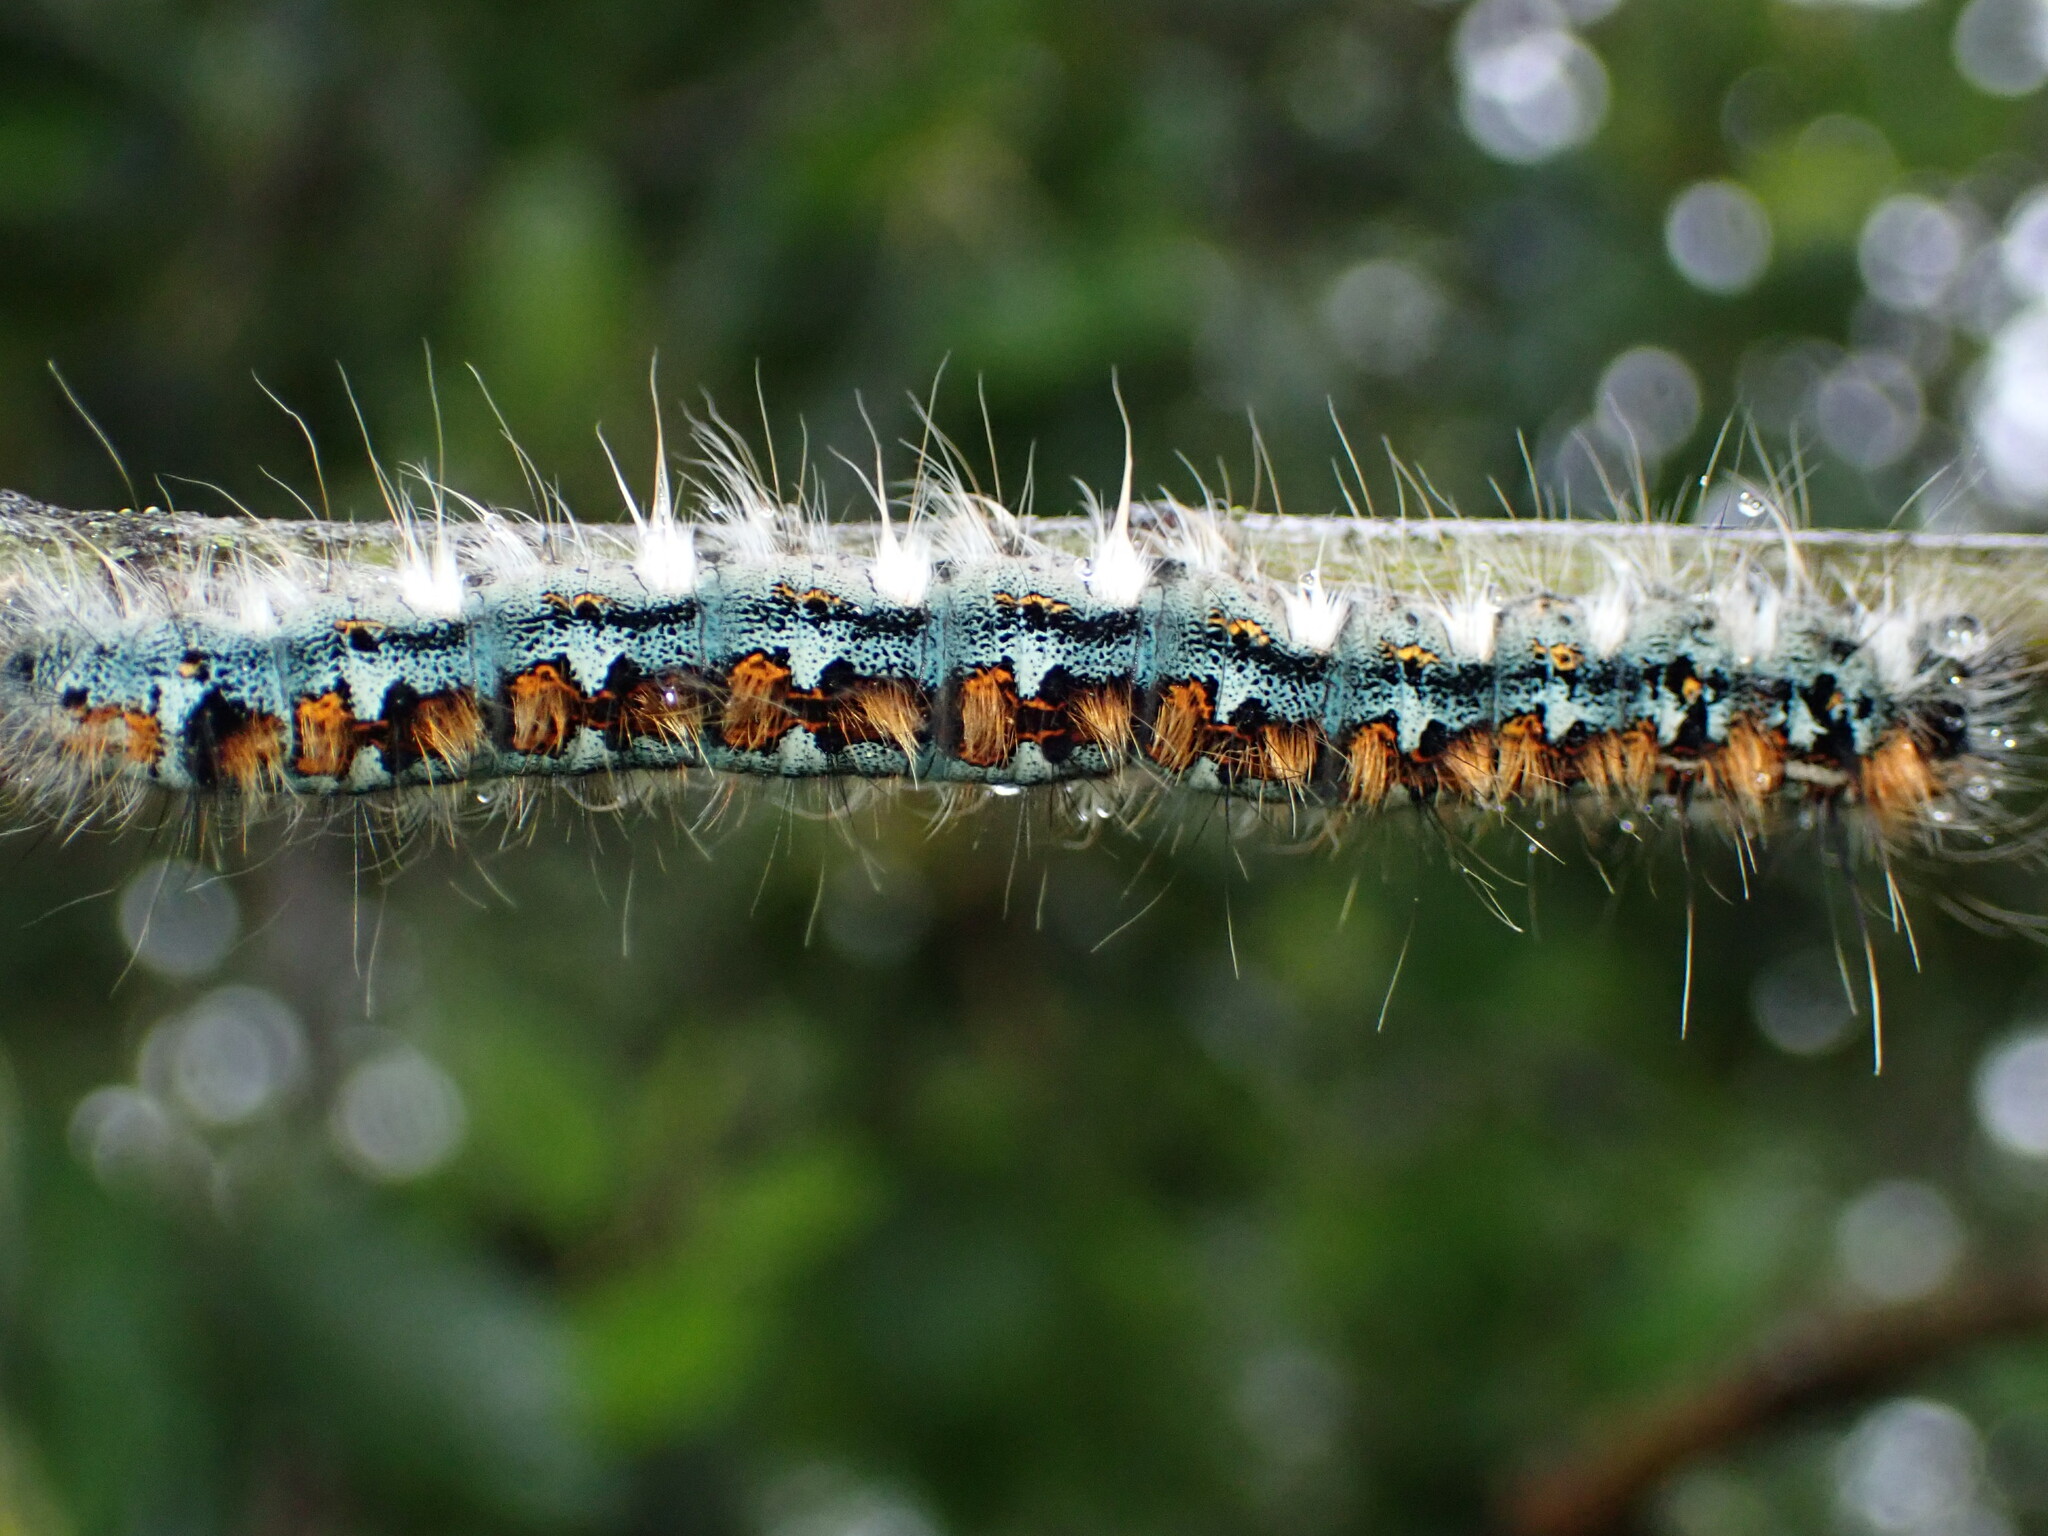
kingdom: Animalia
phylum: Arthropoda
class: Insecta
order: Lepidoptera
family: Lasiocampidae
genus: Malacosoma
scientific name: Malacosoma constricta
